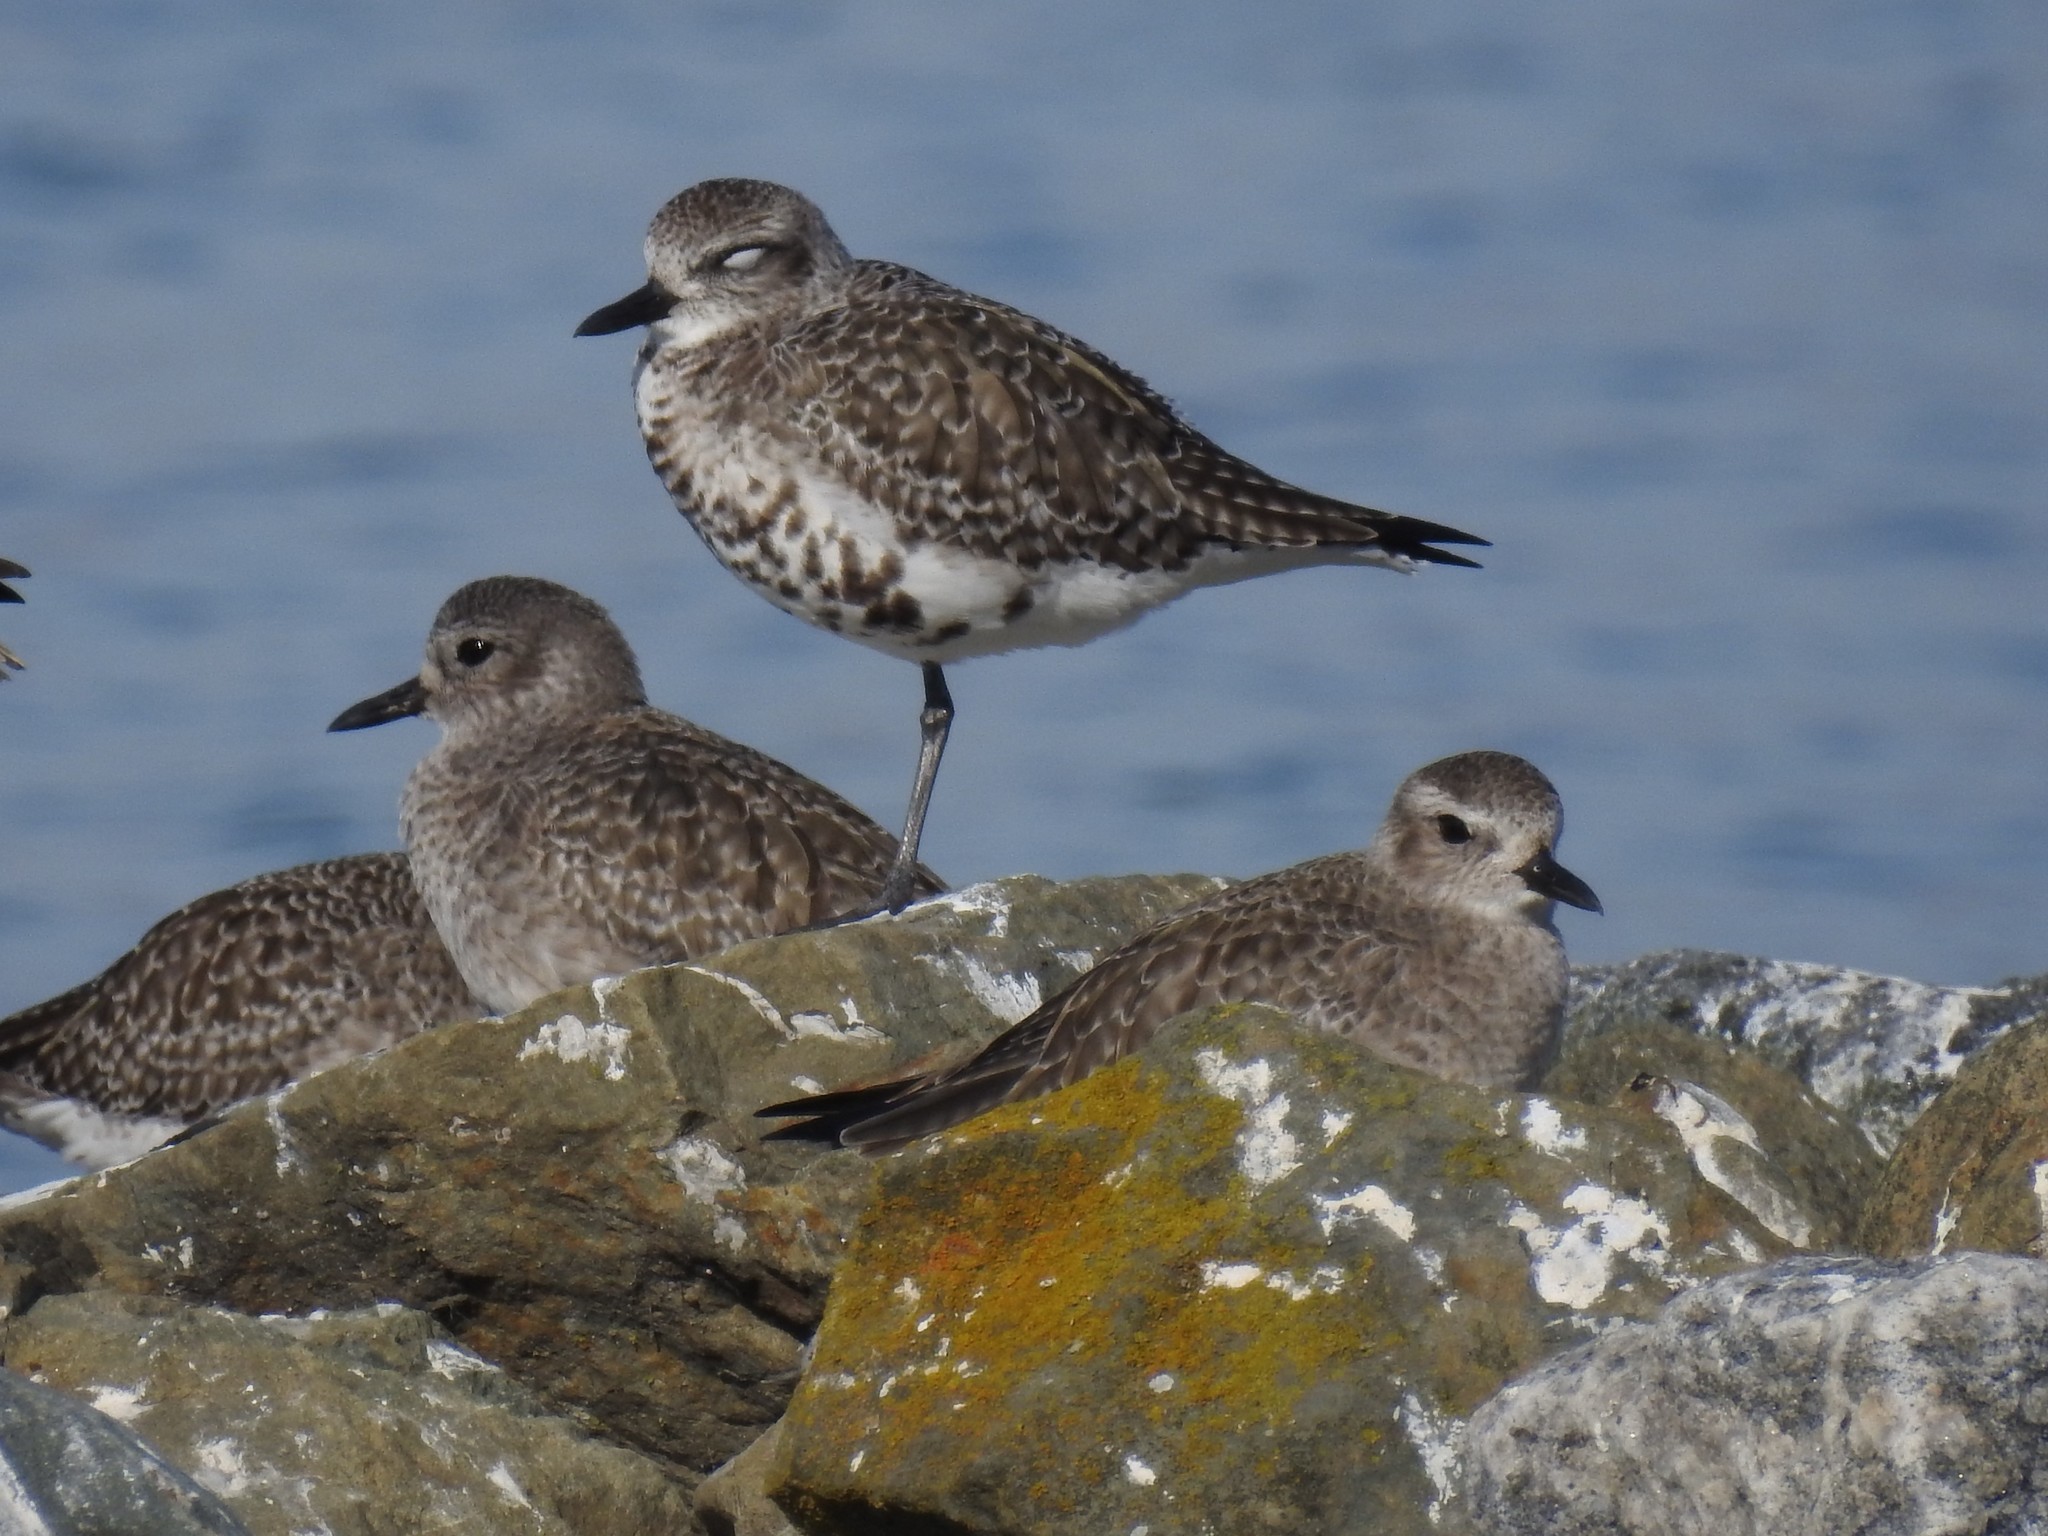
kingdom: Animalia
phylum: Chordata
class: Aves
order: Charadriiformes
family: Charadriidae
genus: Pluvialis
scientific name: Pluvialis squatarola
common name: Grey plover
